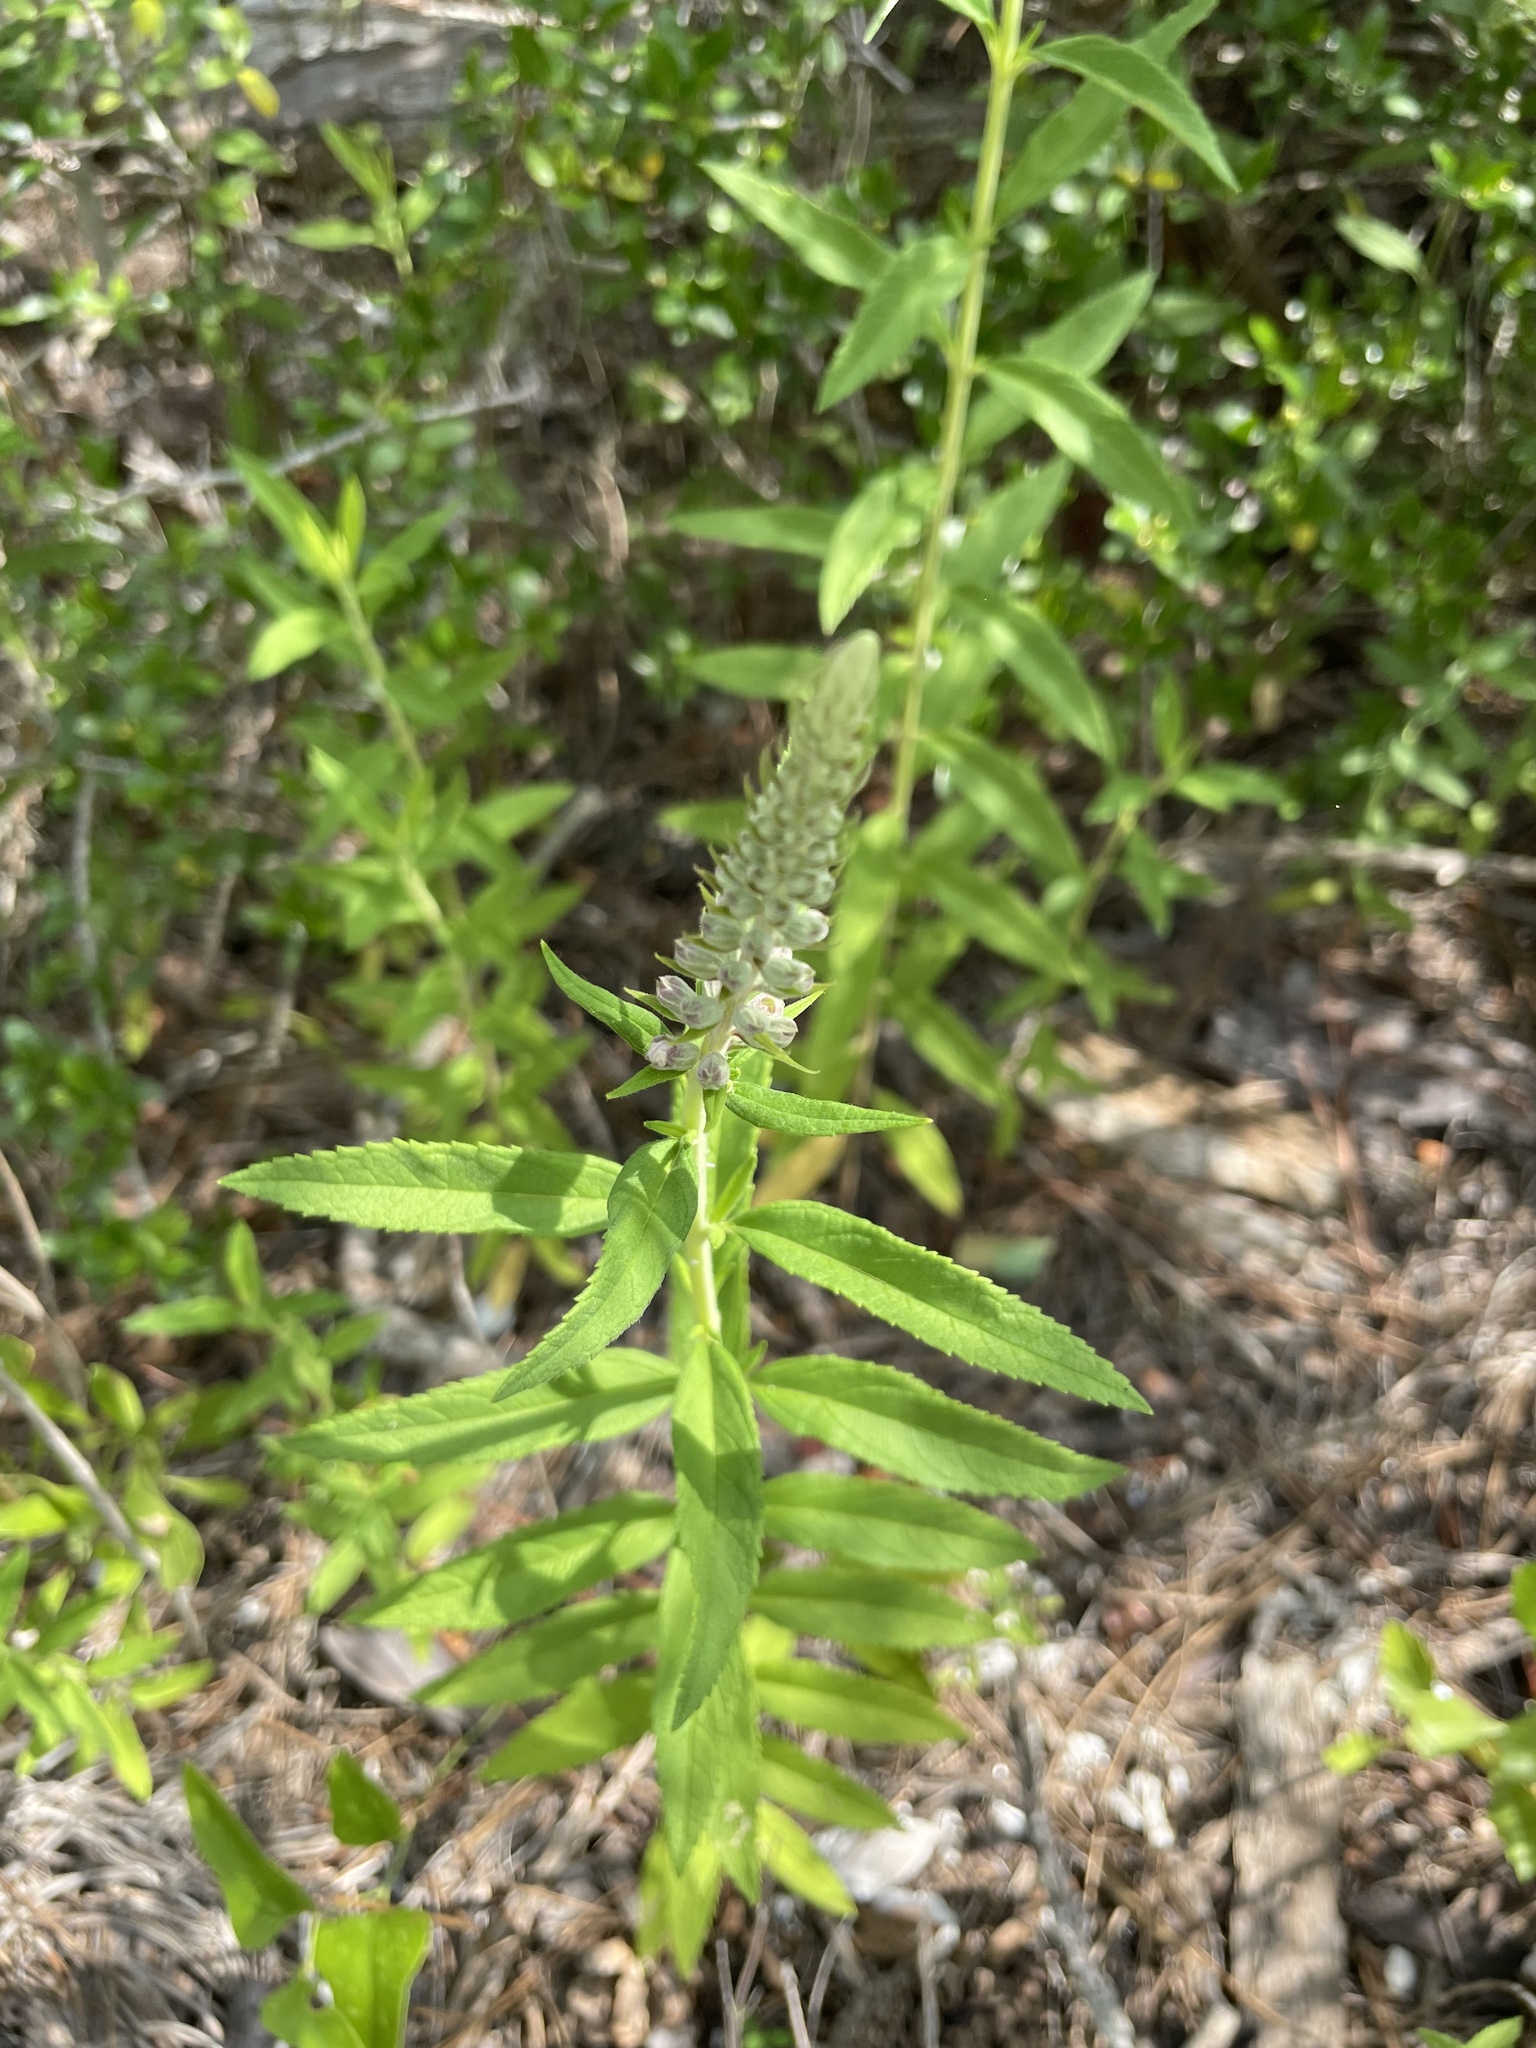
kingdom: Plantae
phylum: Tracheophyta
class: Magnoliopsida
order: Lamiales
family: Lamiaceae
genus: Teucrium
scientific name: Teucrium canadense
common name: American germander
